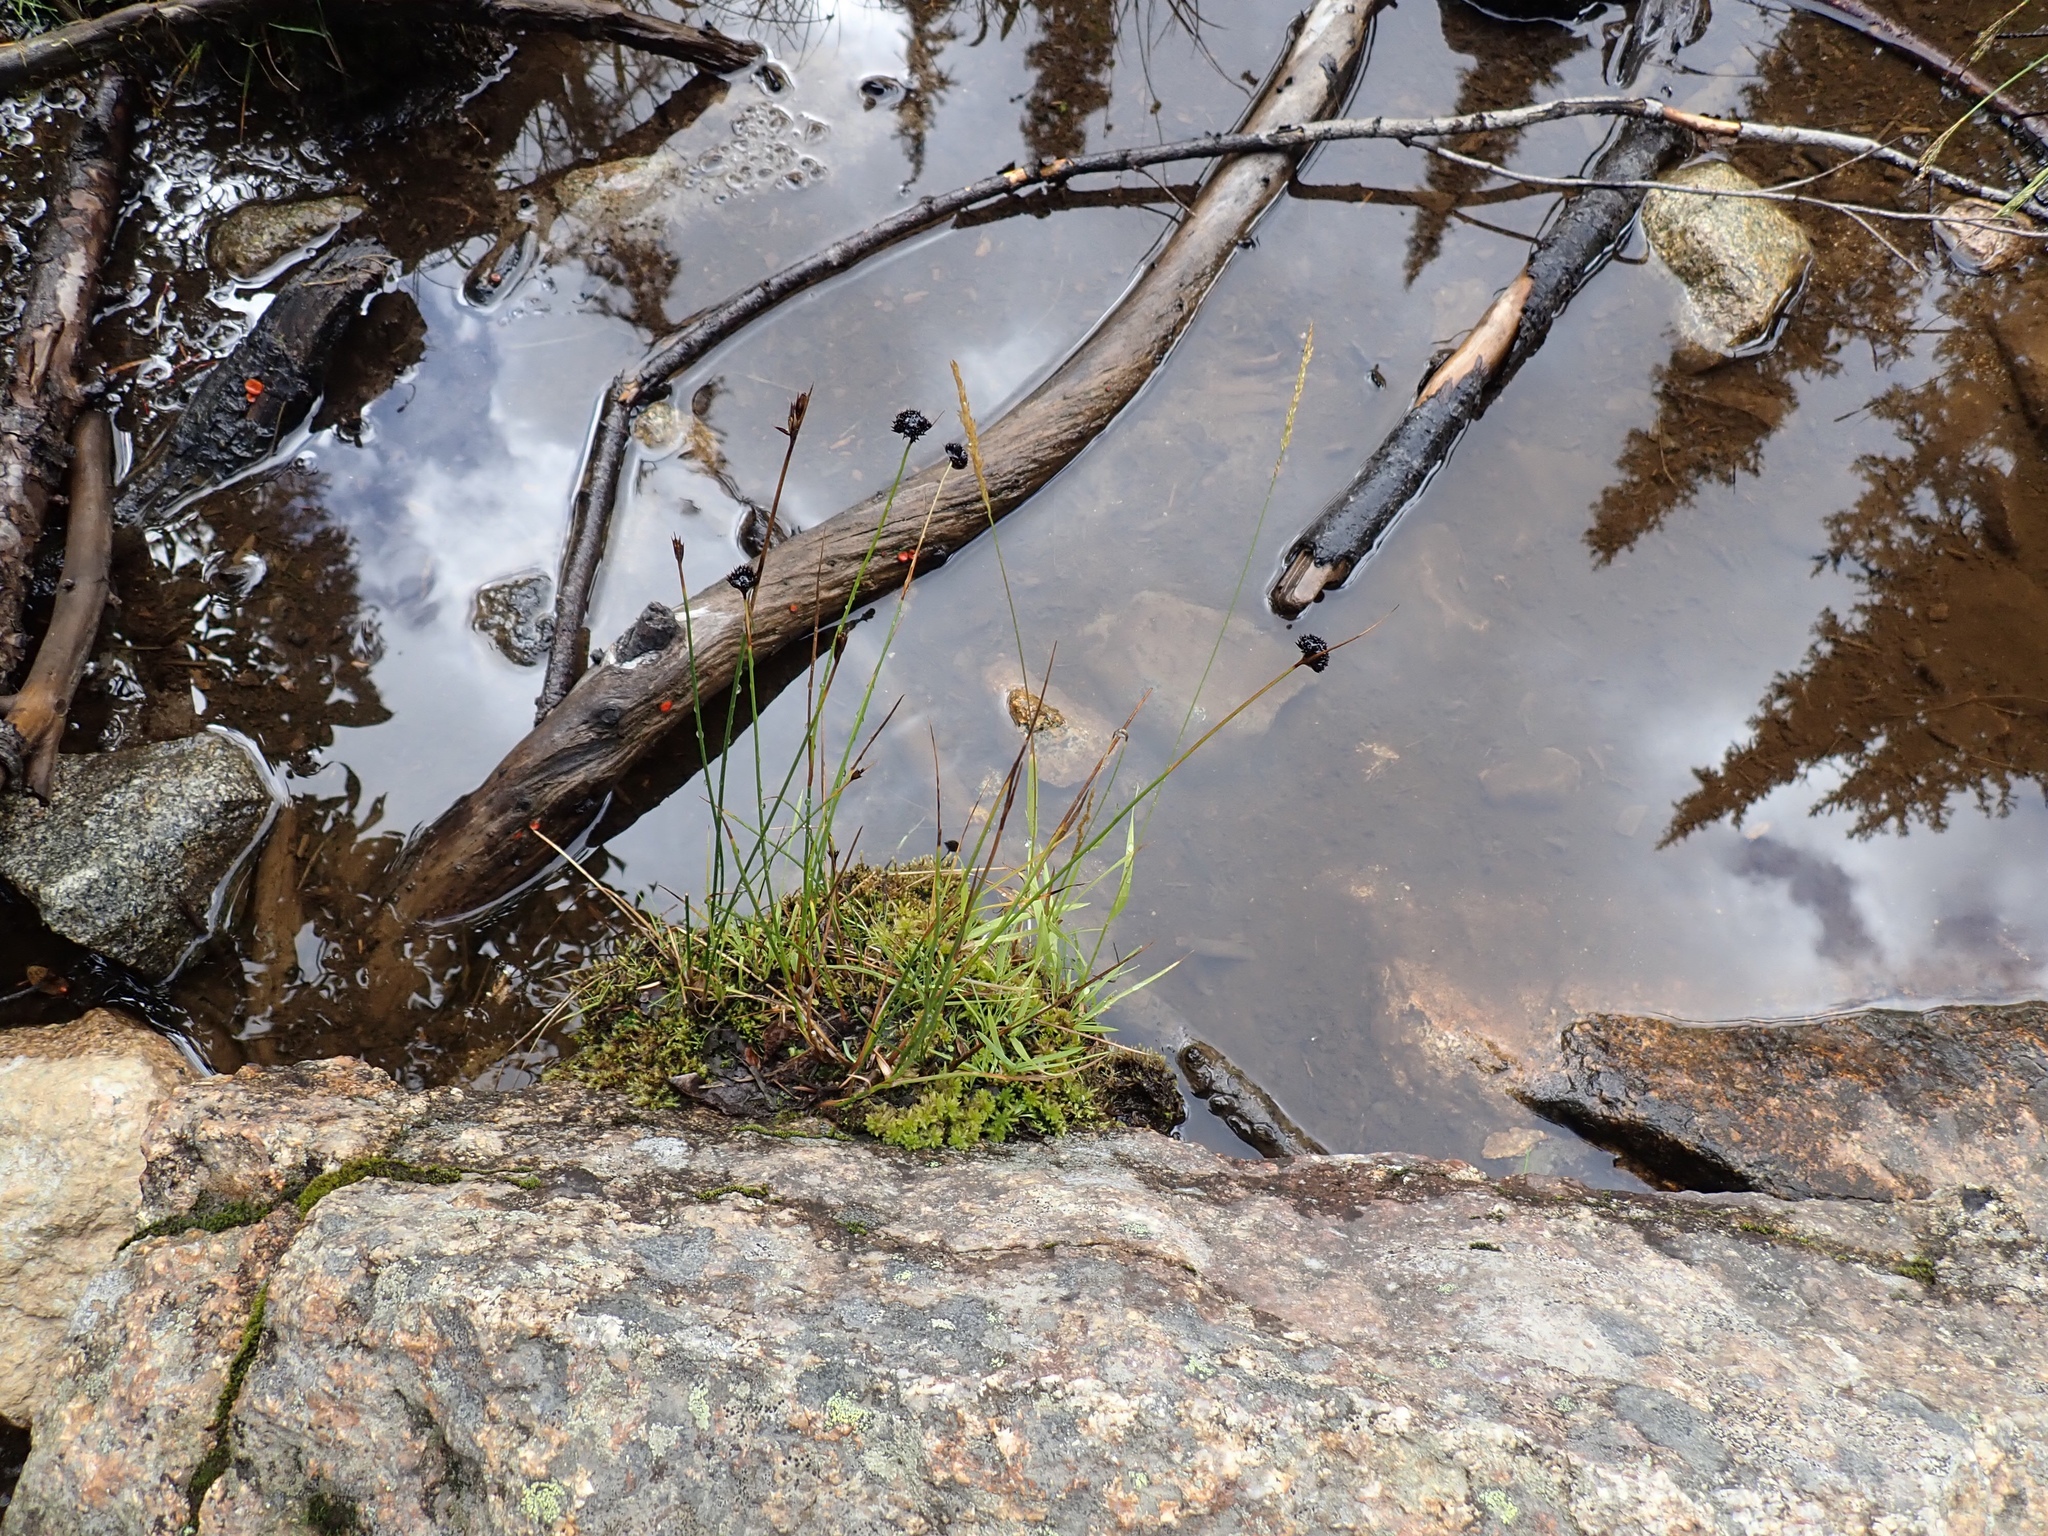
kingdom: Plantae
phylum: Tracheophyta
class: Liliopsida
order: Poales
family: Juncaceae
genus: Juncus
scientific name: Juncus mertensianus
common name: Merten's rush
